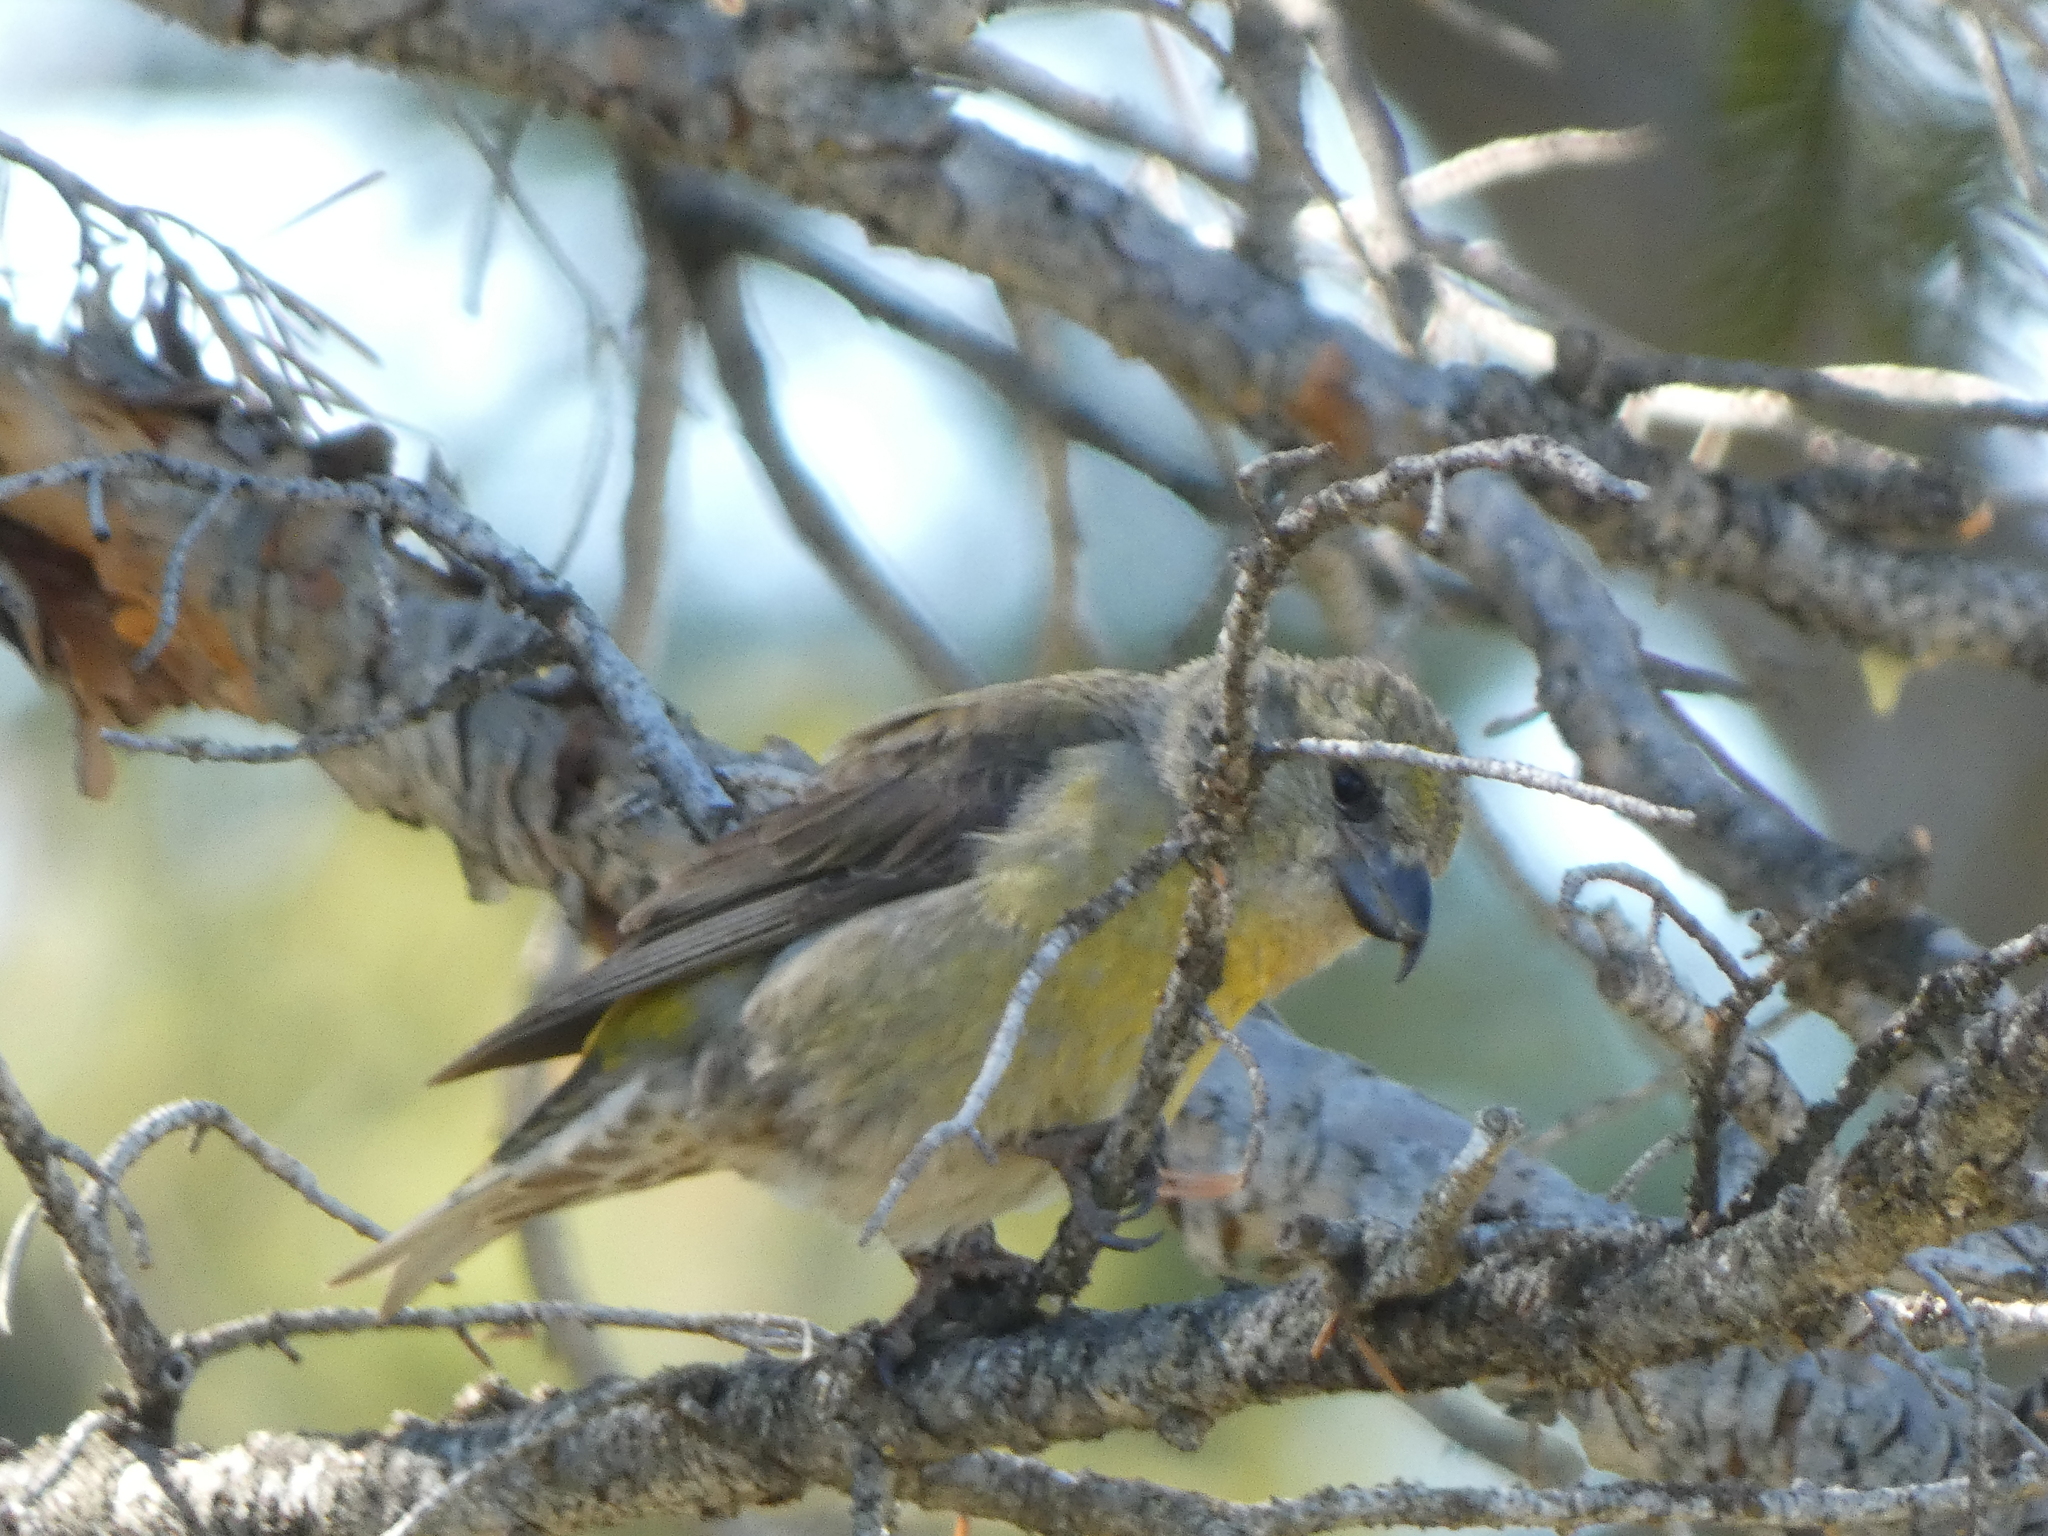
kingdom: Animalia
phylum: Chordata
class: Aves
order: Passeriformes
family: Fringillidae
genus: Loxia
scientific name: Loxia curvirostra
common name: Red crossbill
